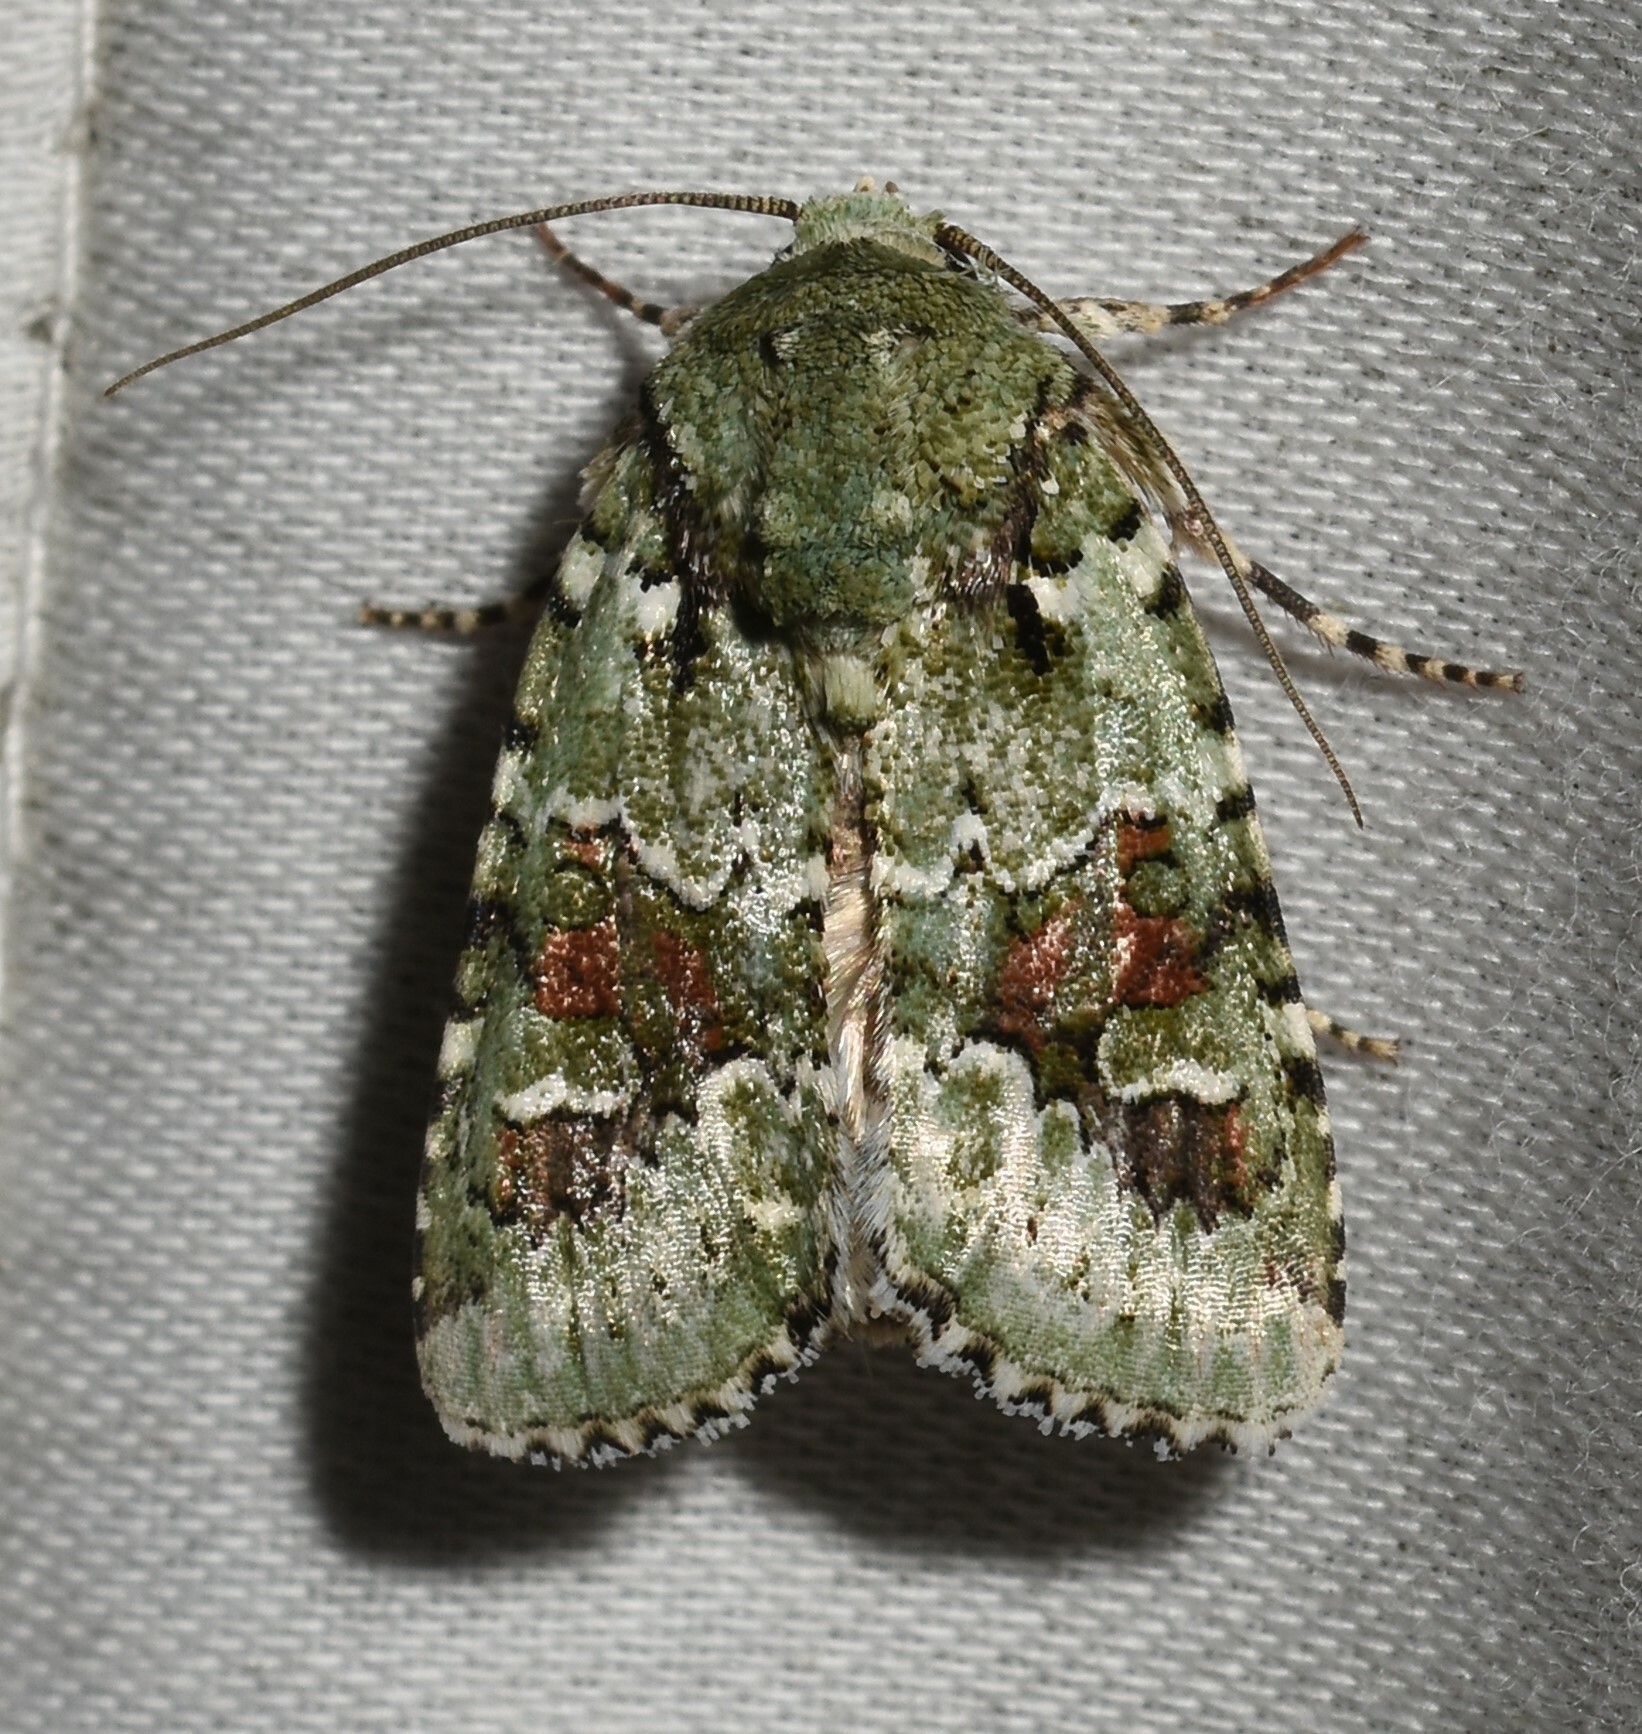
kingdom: Animalia
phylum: Arthropoda
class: Insecta
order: Lepidoptera
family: Noctuidae
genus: Lacinipolia
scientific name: Lacinipolia laudabilis
